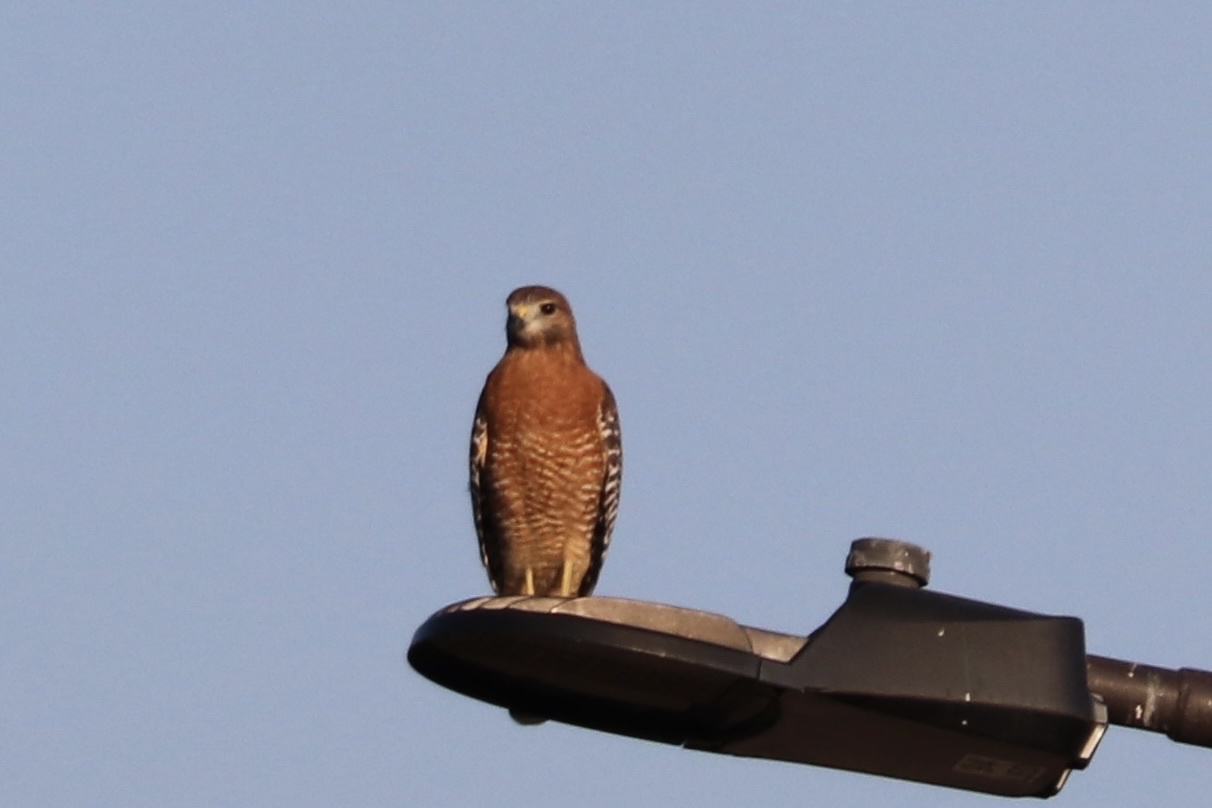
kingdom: Animalia
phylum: Chordata
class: Aves
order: Accipitriformes
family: Accipitridae
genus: Buteo
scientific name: Buteo lineatus
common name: Red-shouldered hawk
